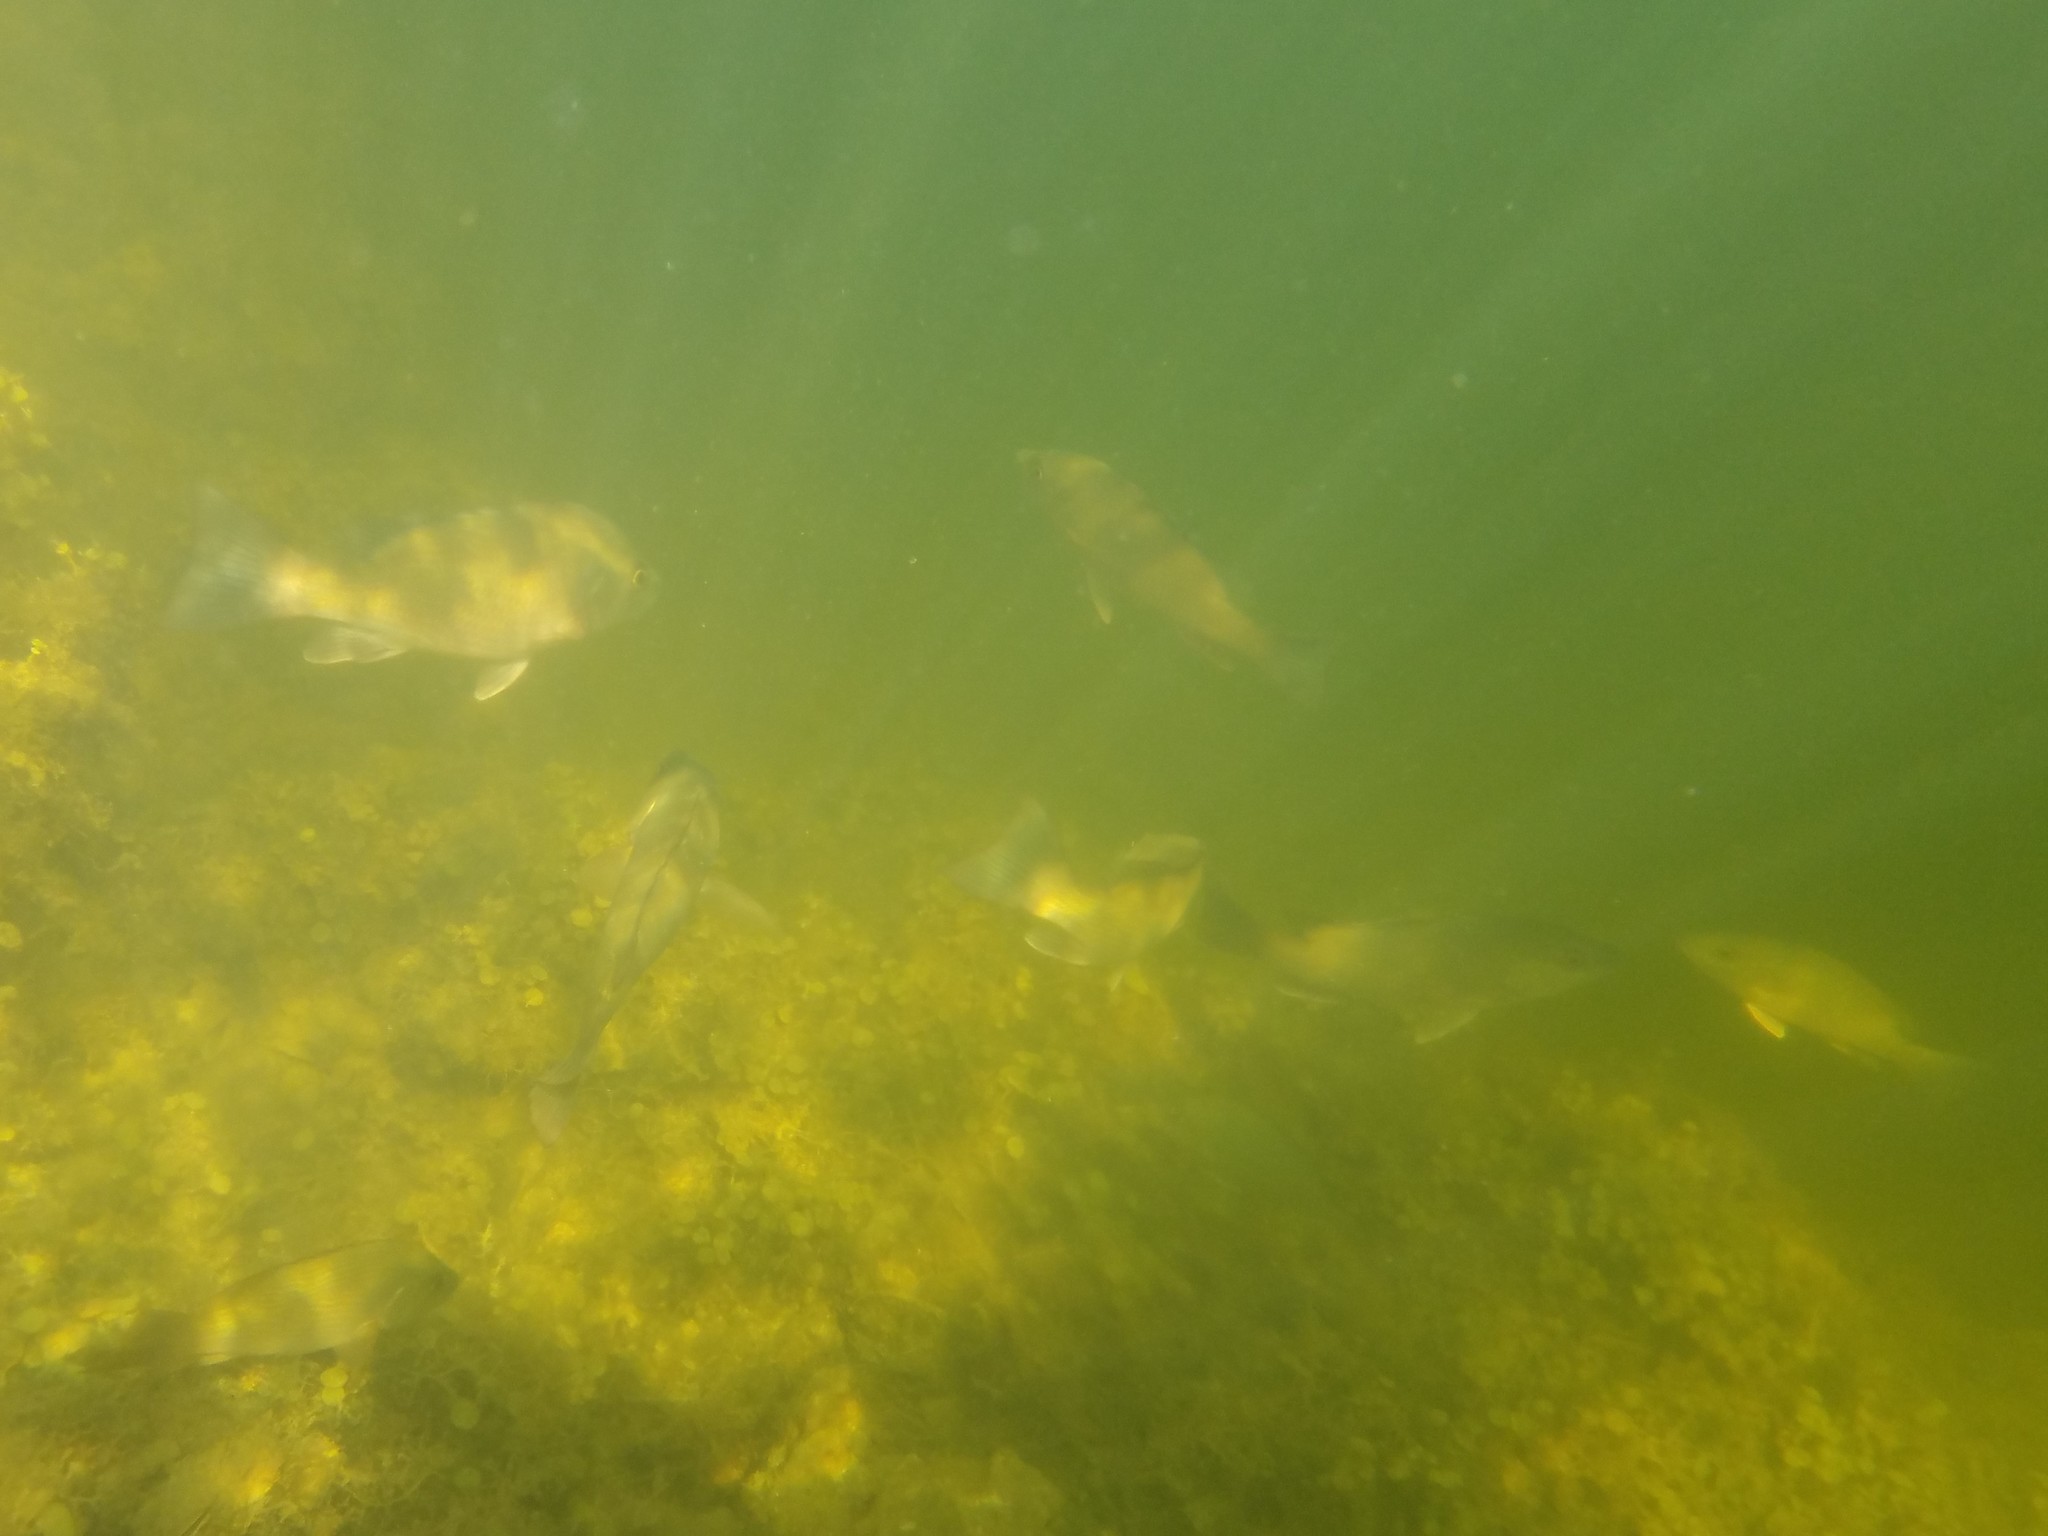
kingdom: Animalia
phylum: Chordata
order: Perciformes
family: Lutjanidae
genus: Lutjanus
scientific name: Lutjanus griseus
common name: Gray snapper
